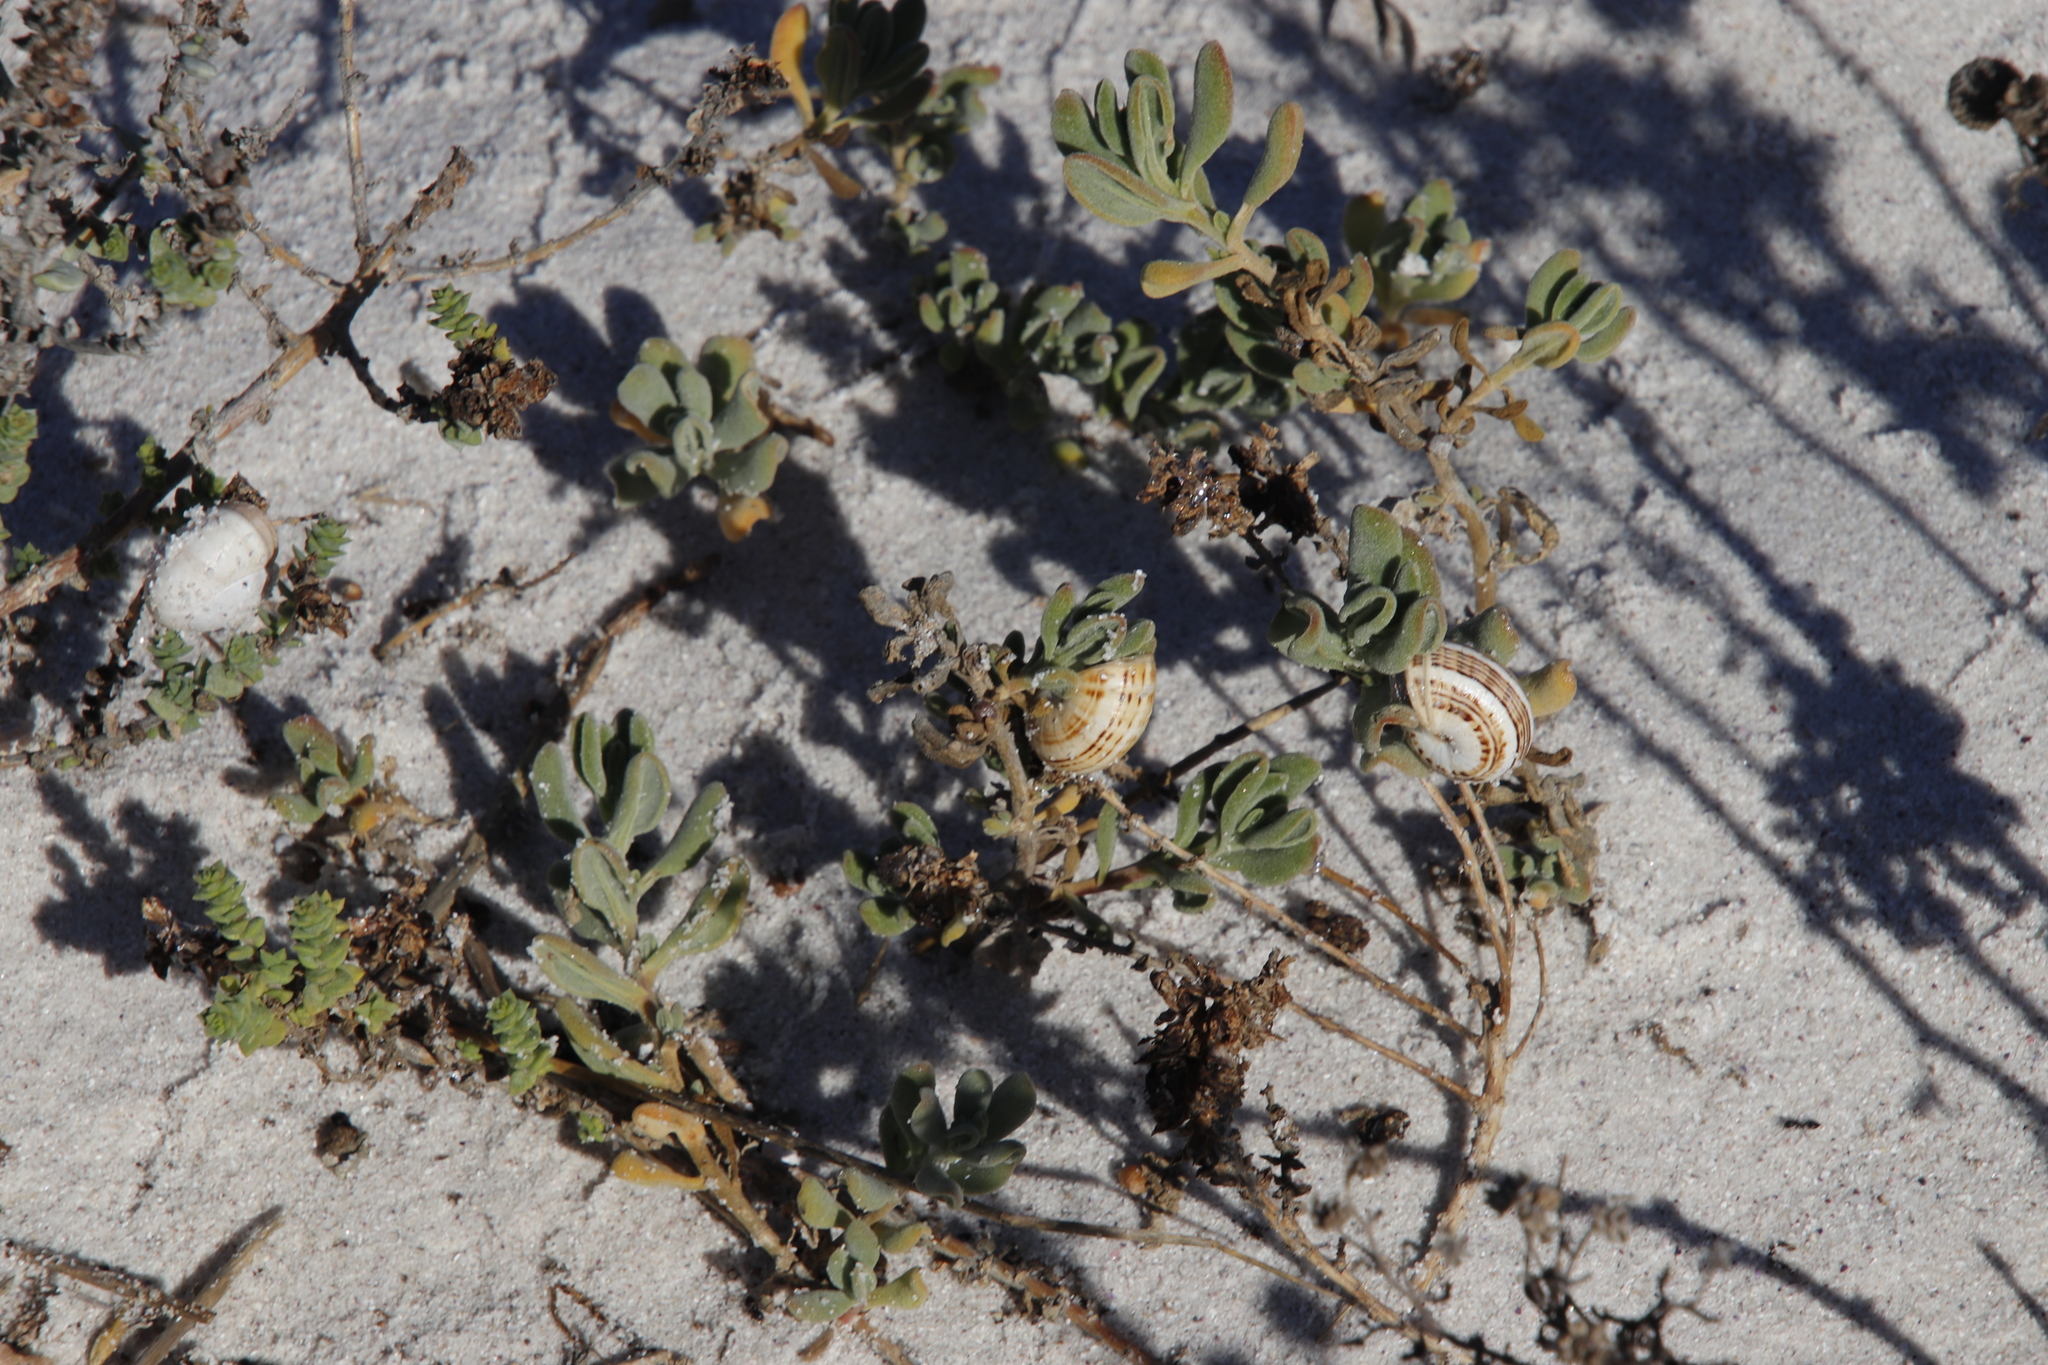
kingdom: Animalia
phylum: Mollusca
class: Gastropoda
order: Stylommatophora
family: Helicidae
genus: Theba
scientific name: Theba pisana
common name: White snail
